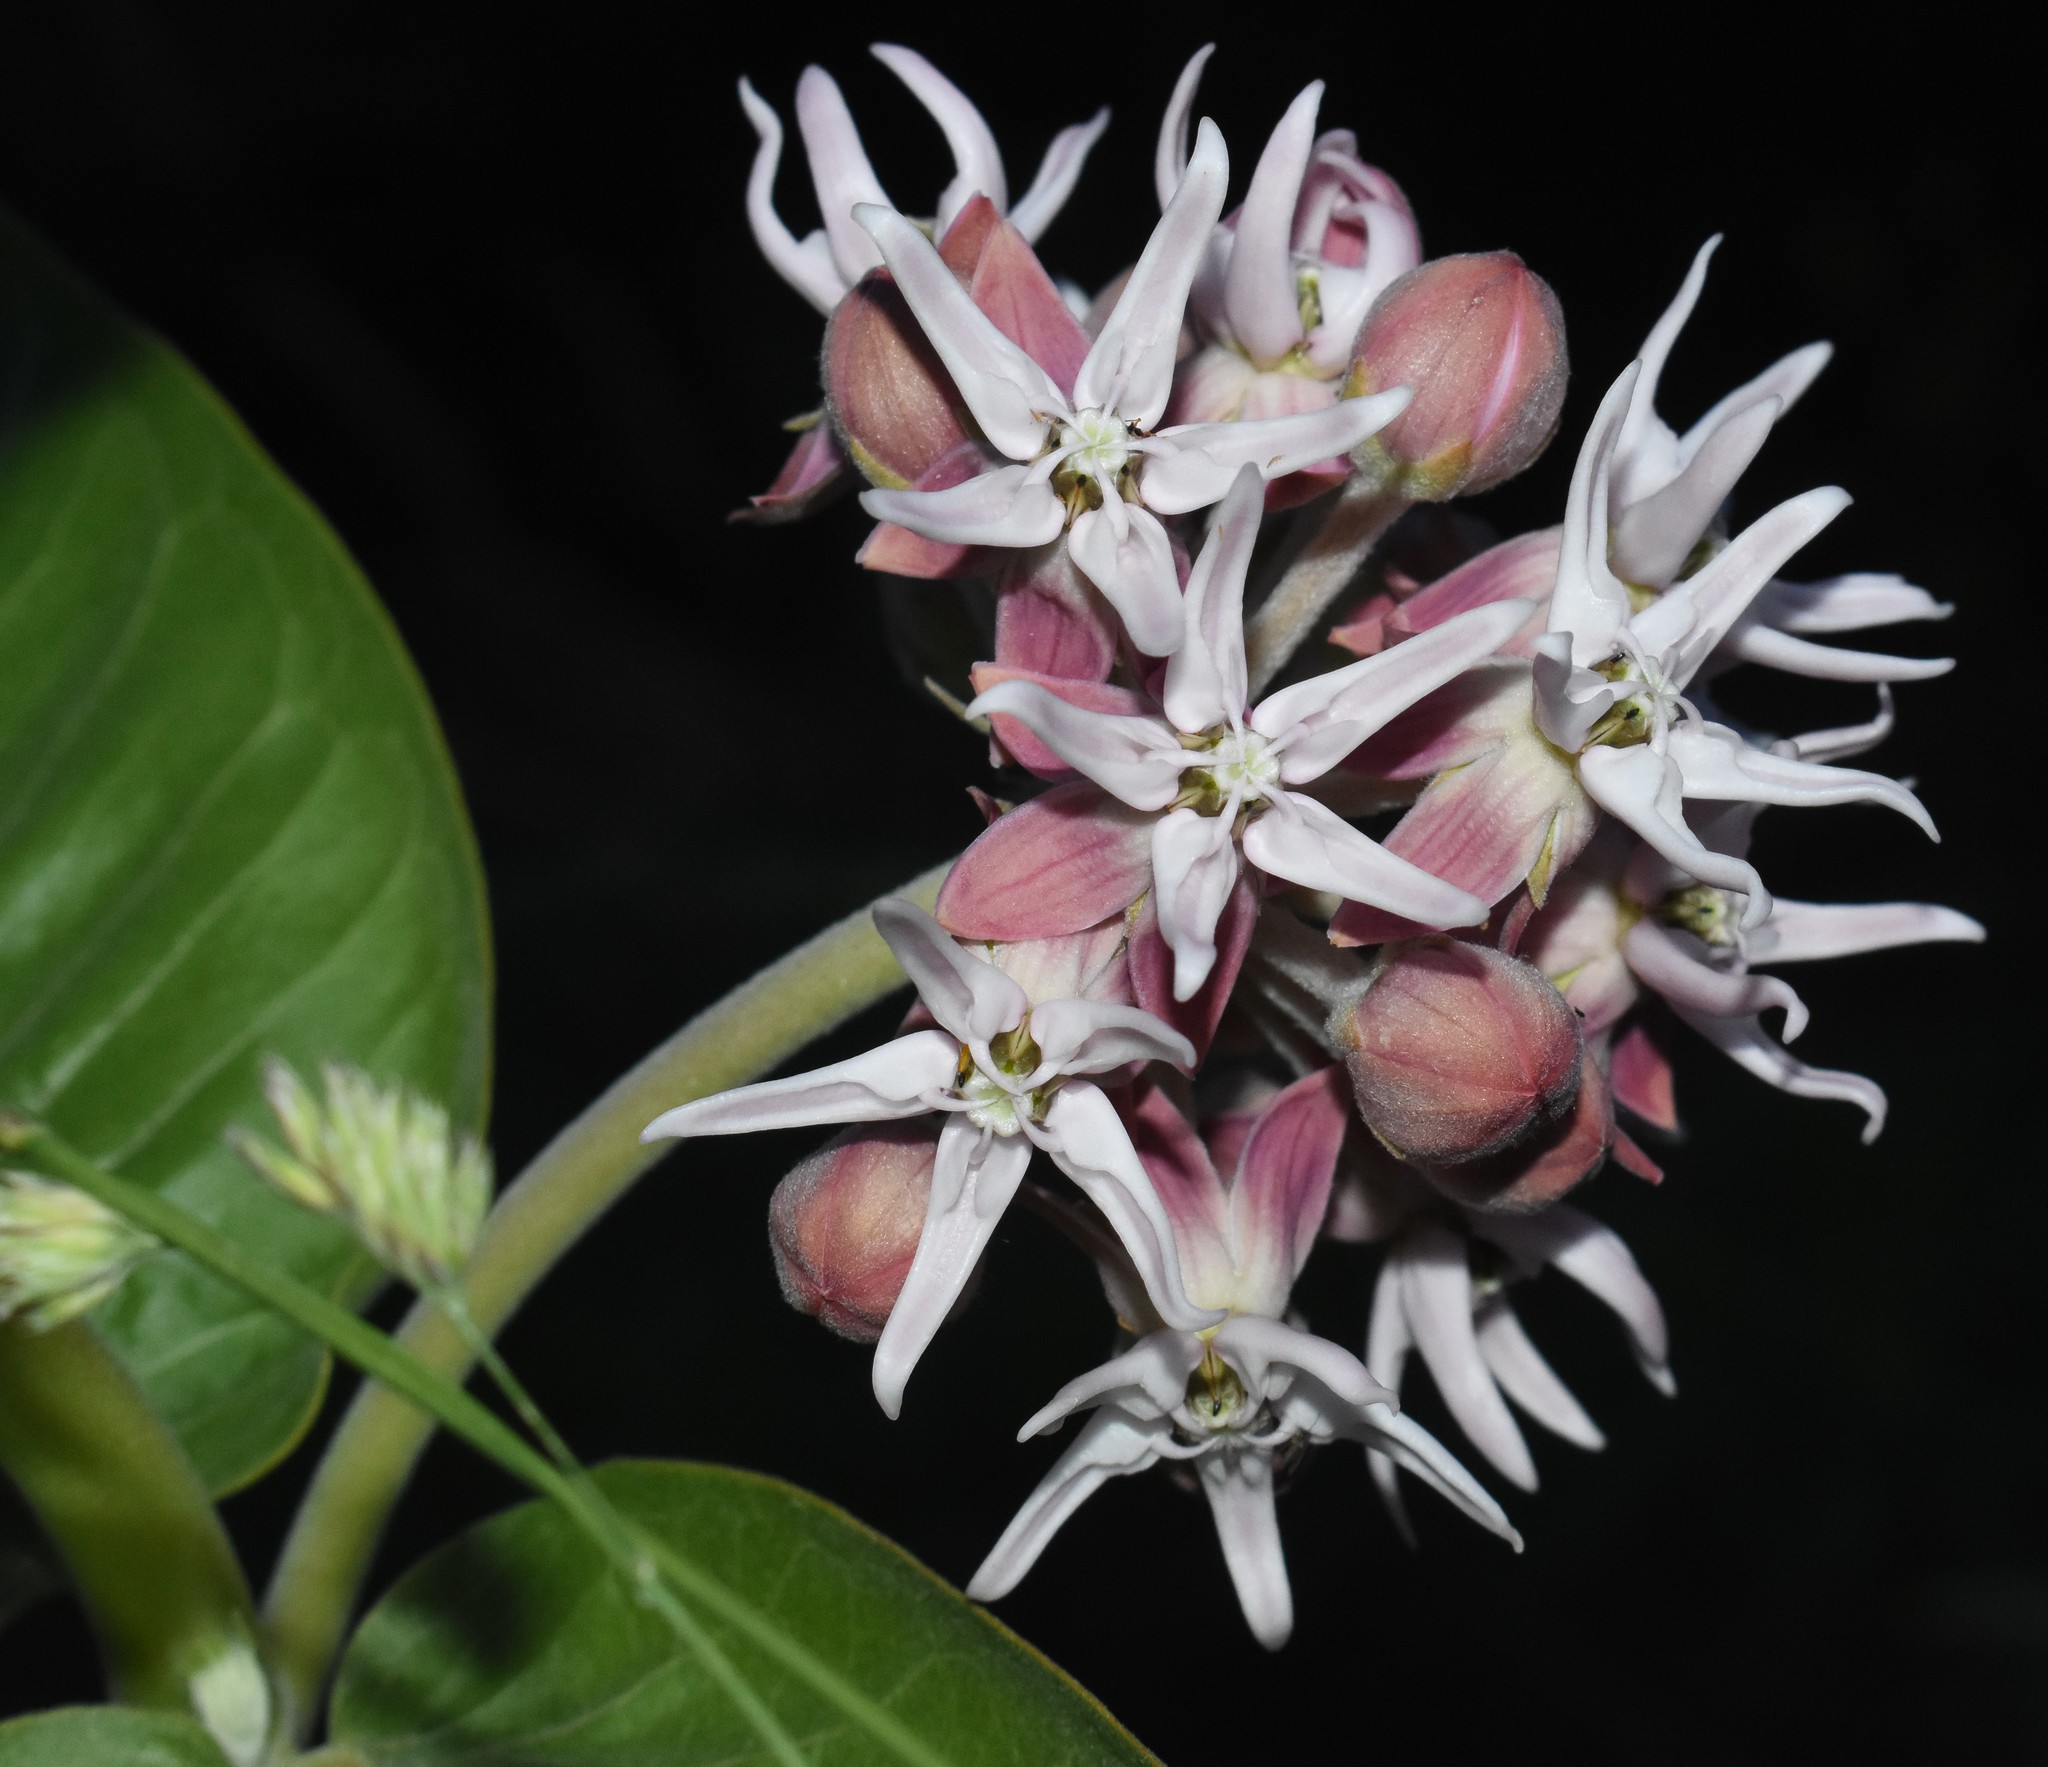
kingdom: Plantae
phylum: Tracheophyta
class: Magnoliopsida
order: Gentianales
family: Apocynaceae
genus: Asclepias
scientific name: Asclepias speciosa
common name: Showy milkweed
